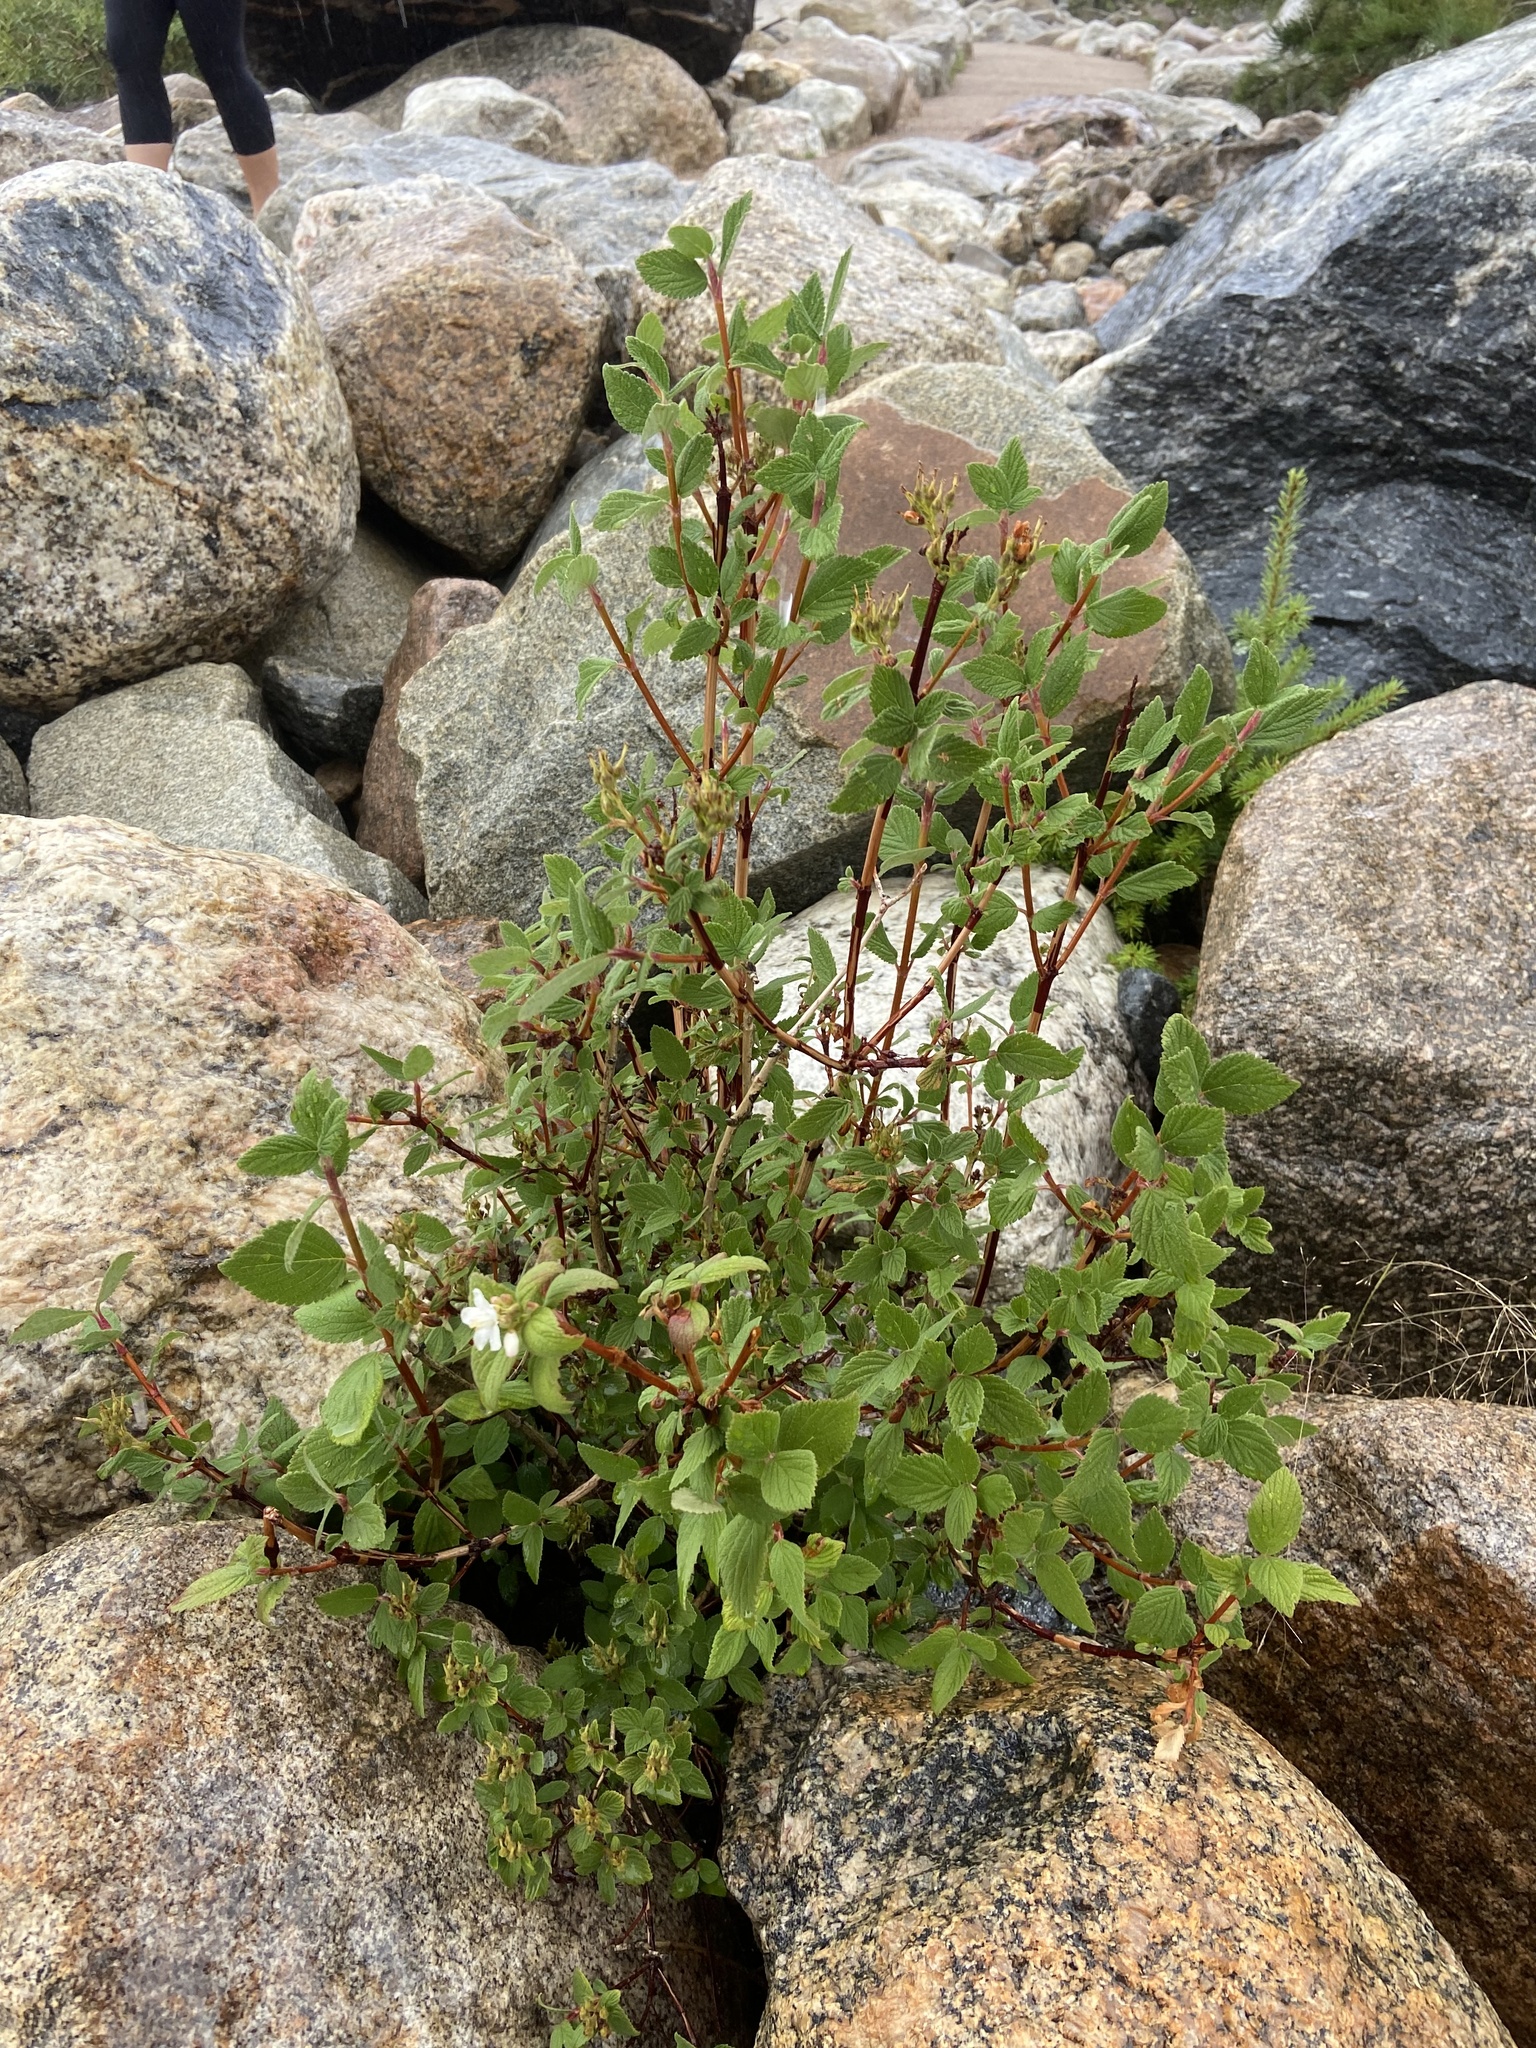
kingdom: Plantae
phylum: Tracheophyta
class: Magnoliopsida
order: Cornales
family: Hydrangeaceae
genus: Jamesia
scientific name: Jamesia americana
